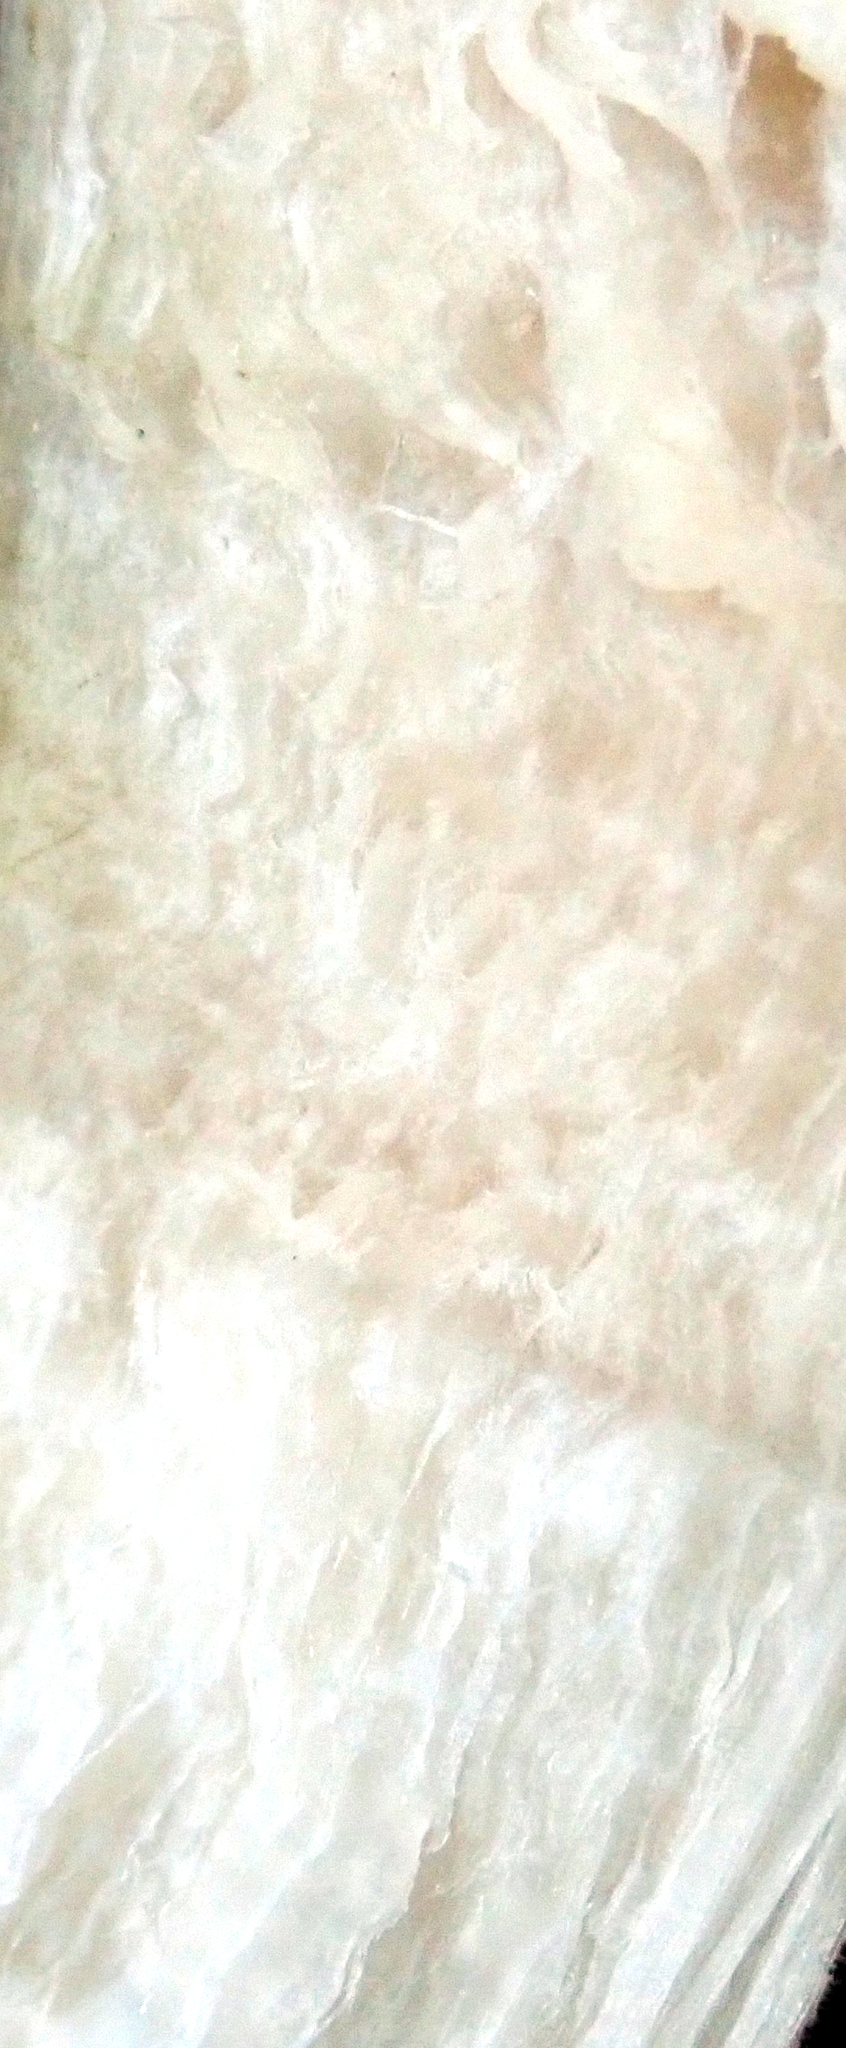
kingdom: Fungi
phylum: Basidiomycota
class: Agaricomycetes
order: Boletales
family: Boletaceae
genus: Porphyrellus
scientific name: Porphyrellus formosus
